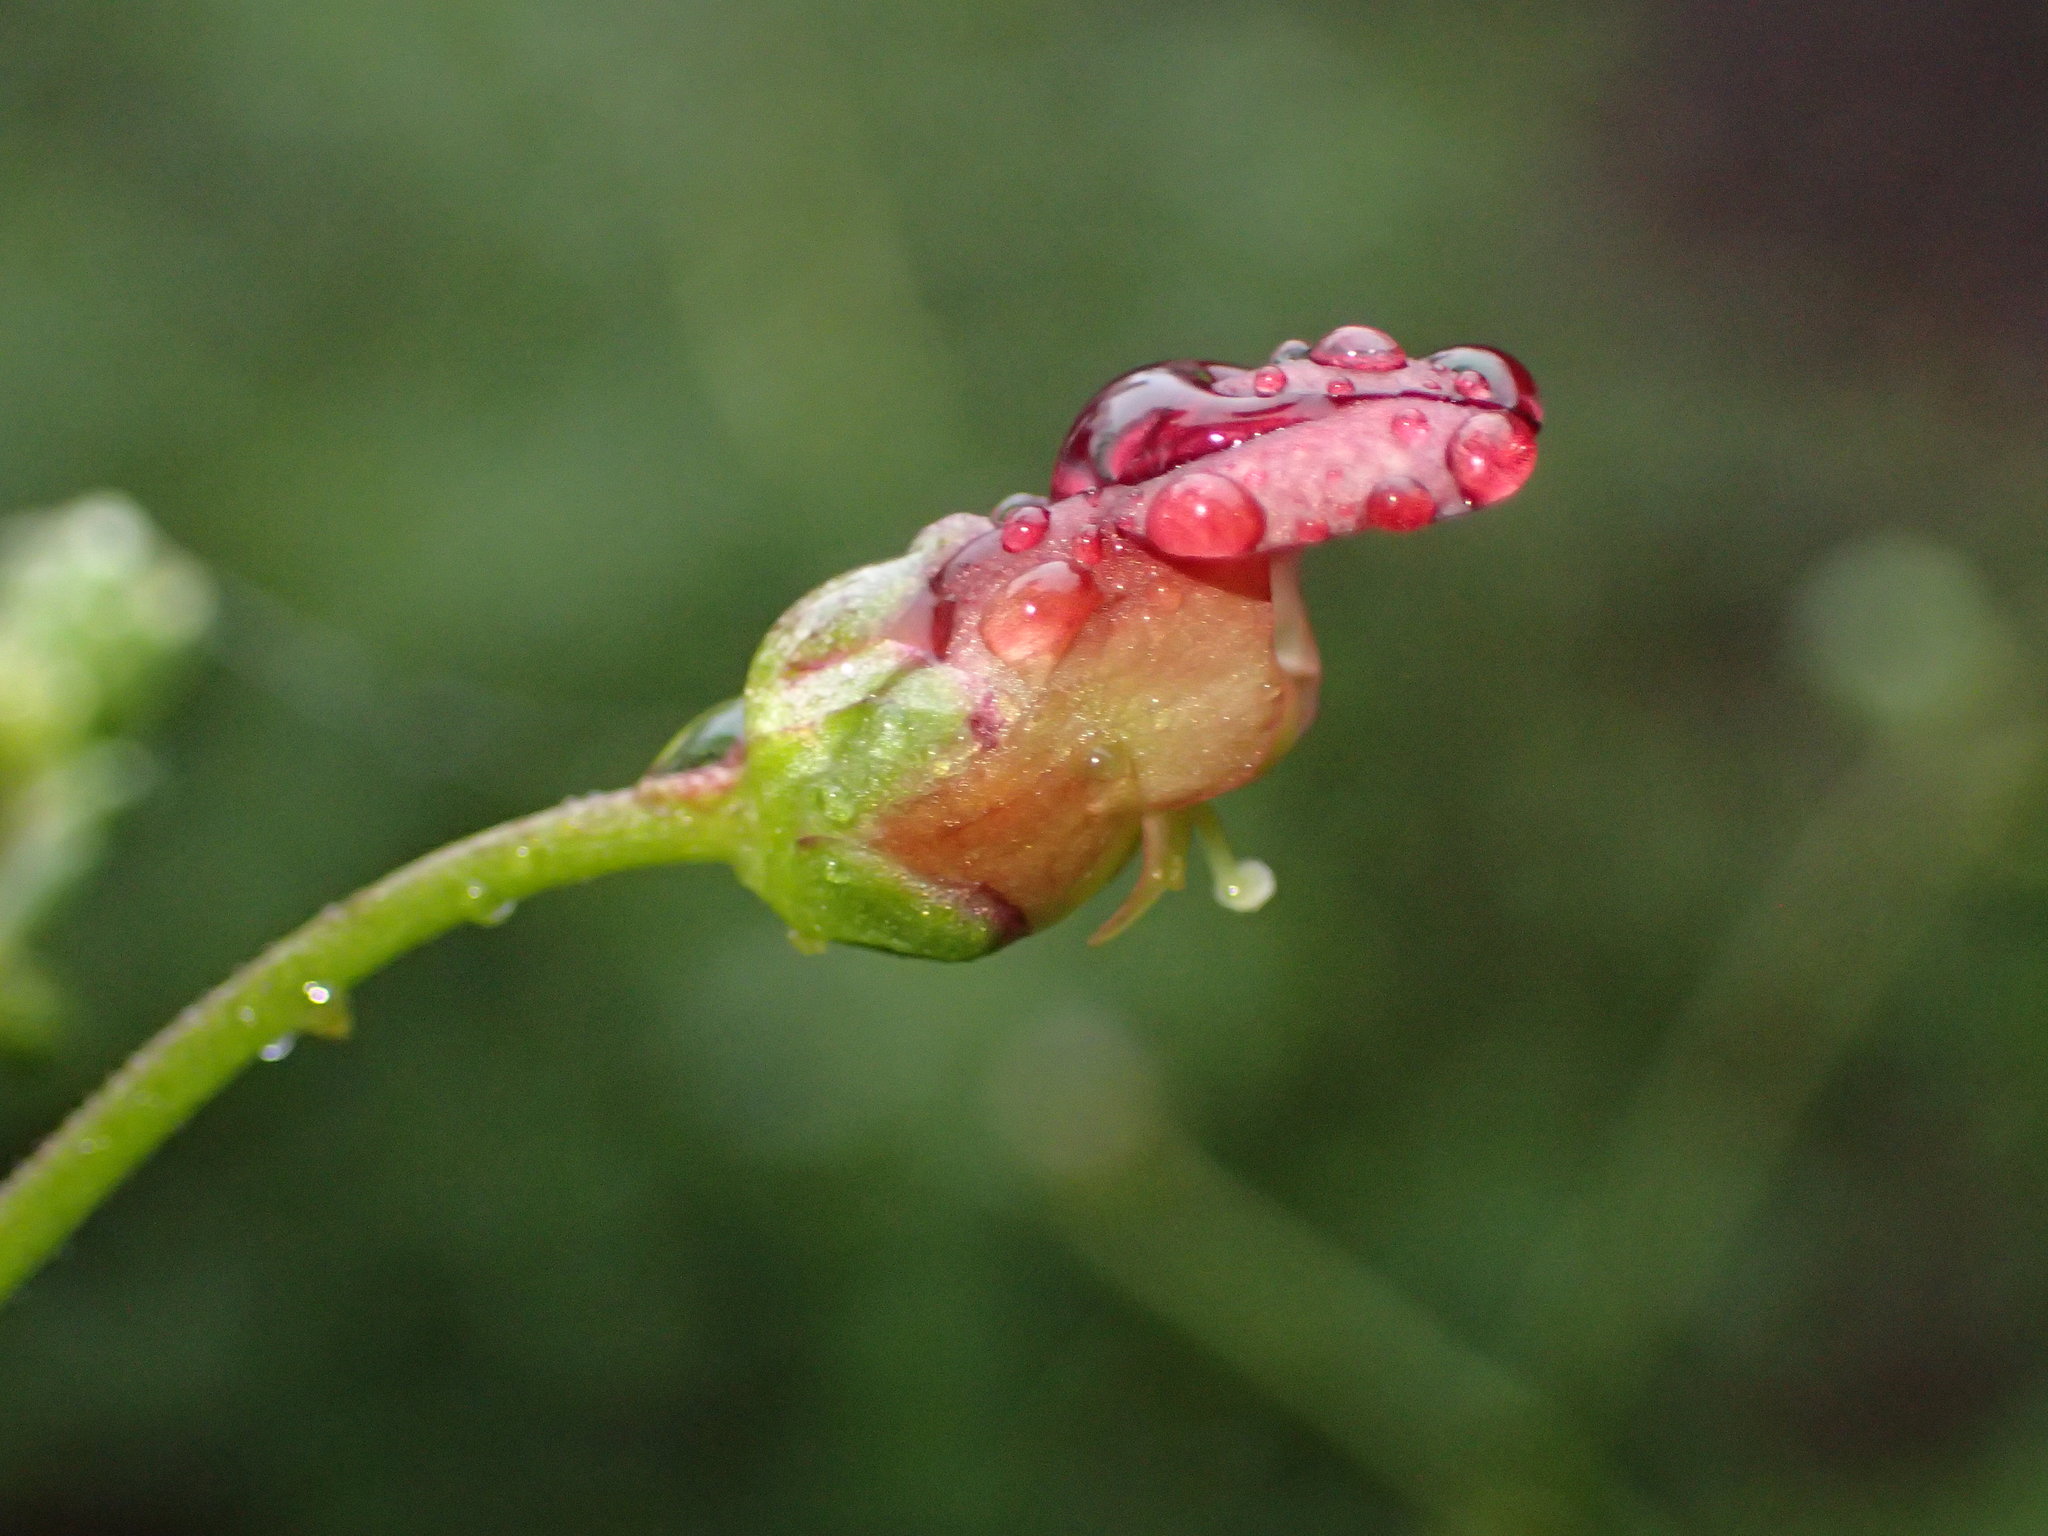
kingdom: Plantae
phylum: Tracheophyta
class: Magnoliopsida
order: Lamiales
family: Scrophulariaceae
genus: Scrophularia
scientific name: Scrophularia californica
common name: California figwort
